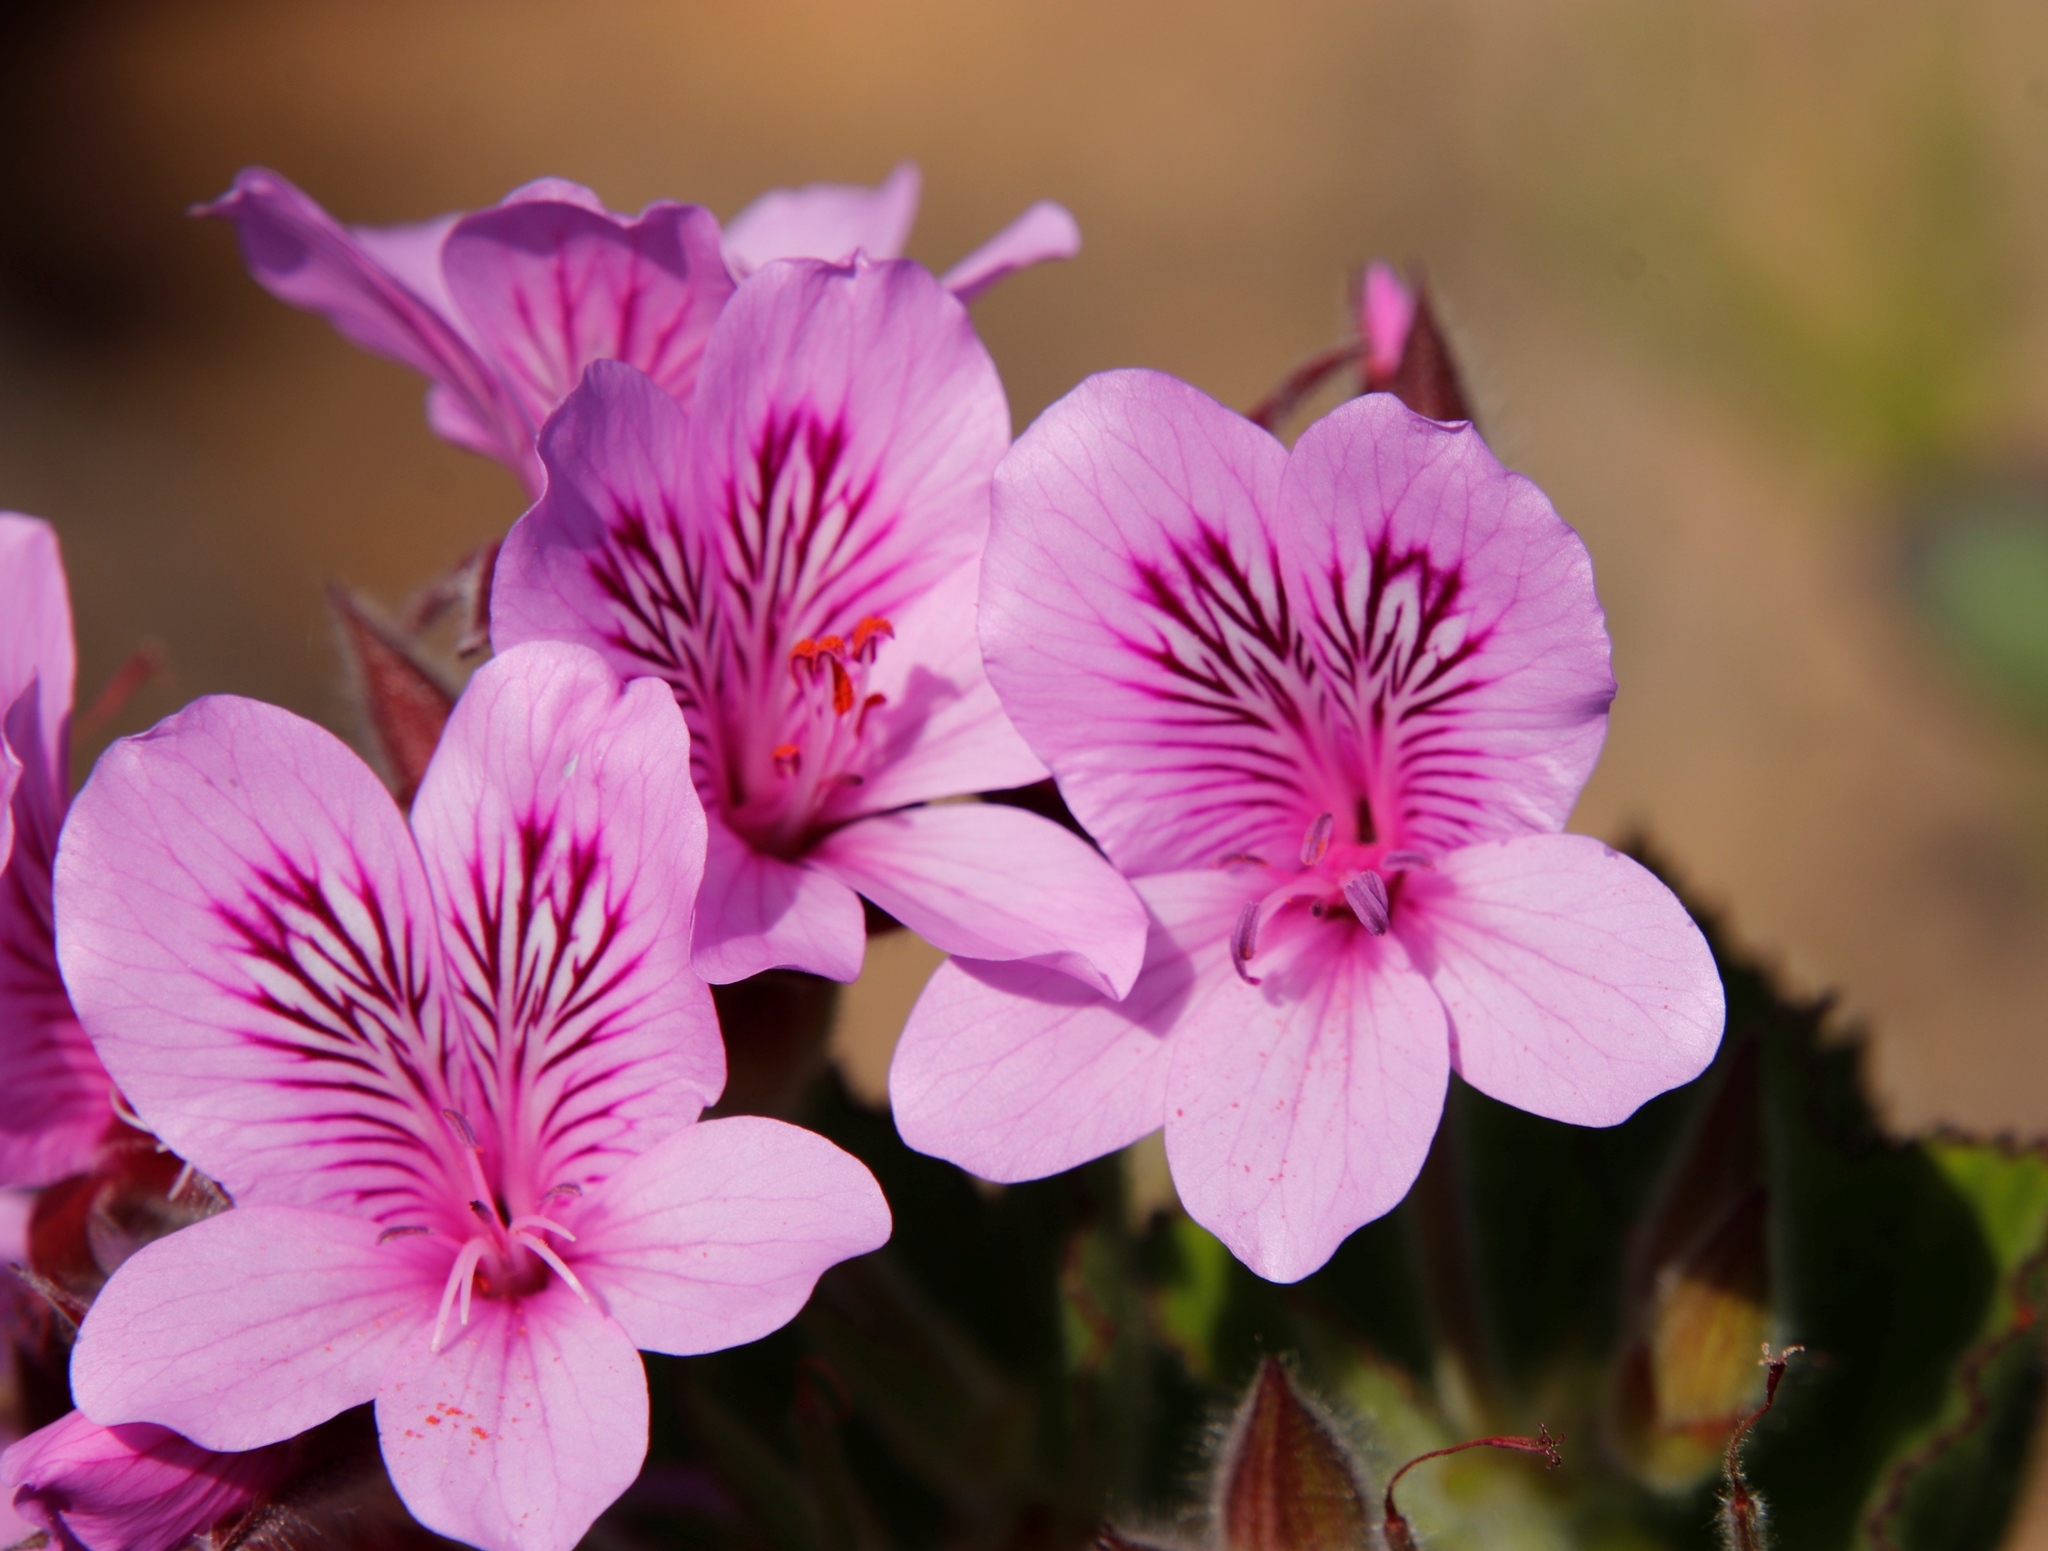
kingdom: Plantae
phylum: Tracheophyta
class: Magnoliopsida
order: Geraniales
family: Geraniaceae
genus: Pelargonium
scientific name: Pelargonium cucullatum
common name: Tree pelargonium
